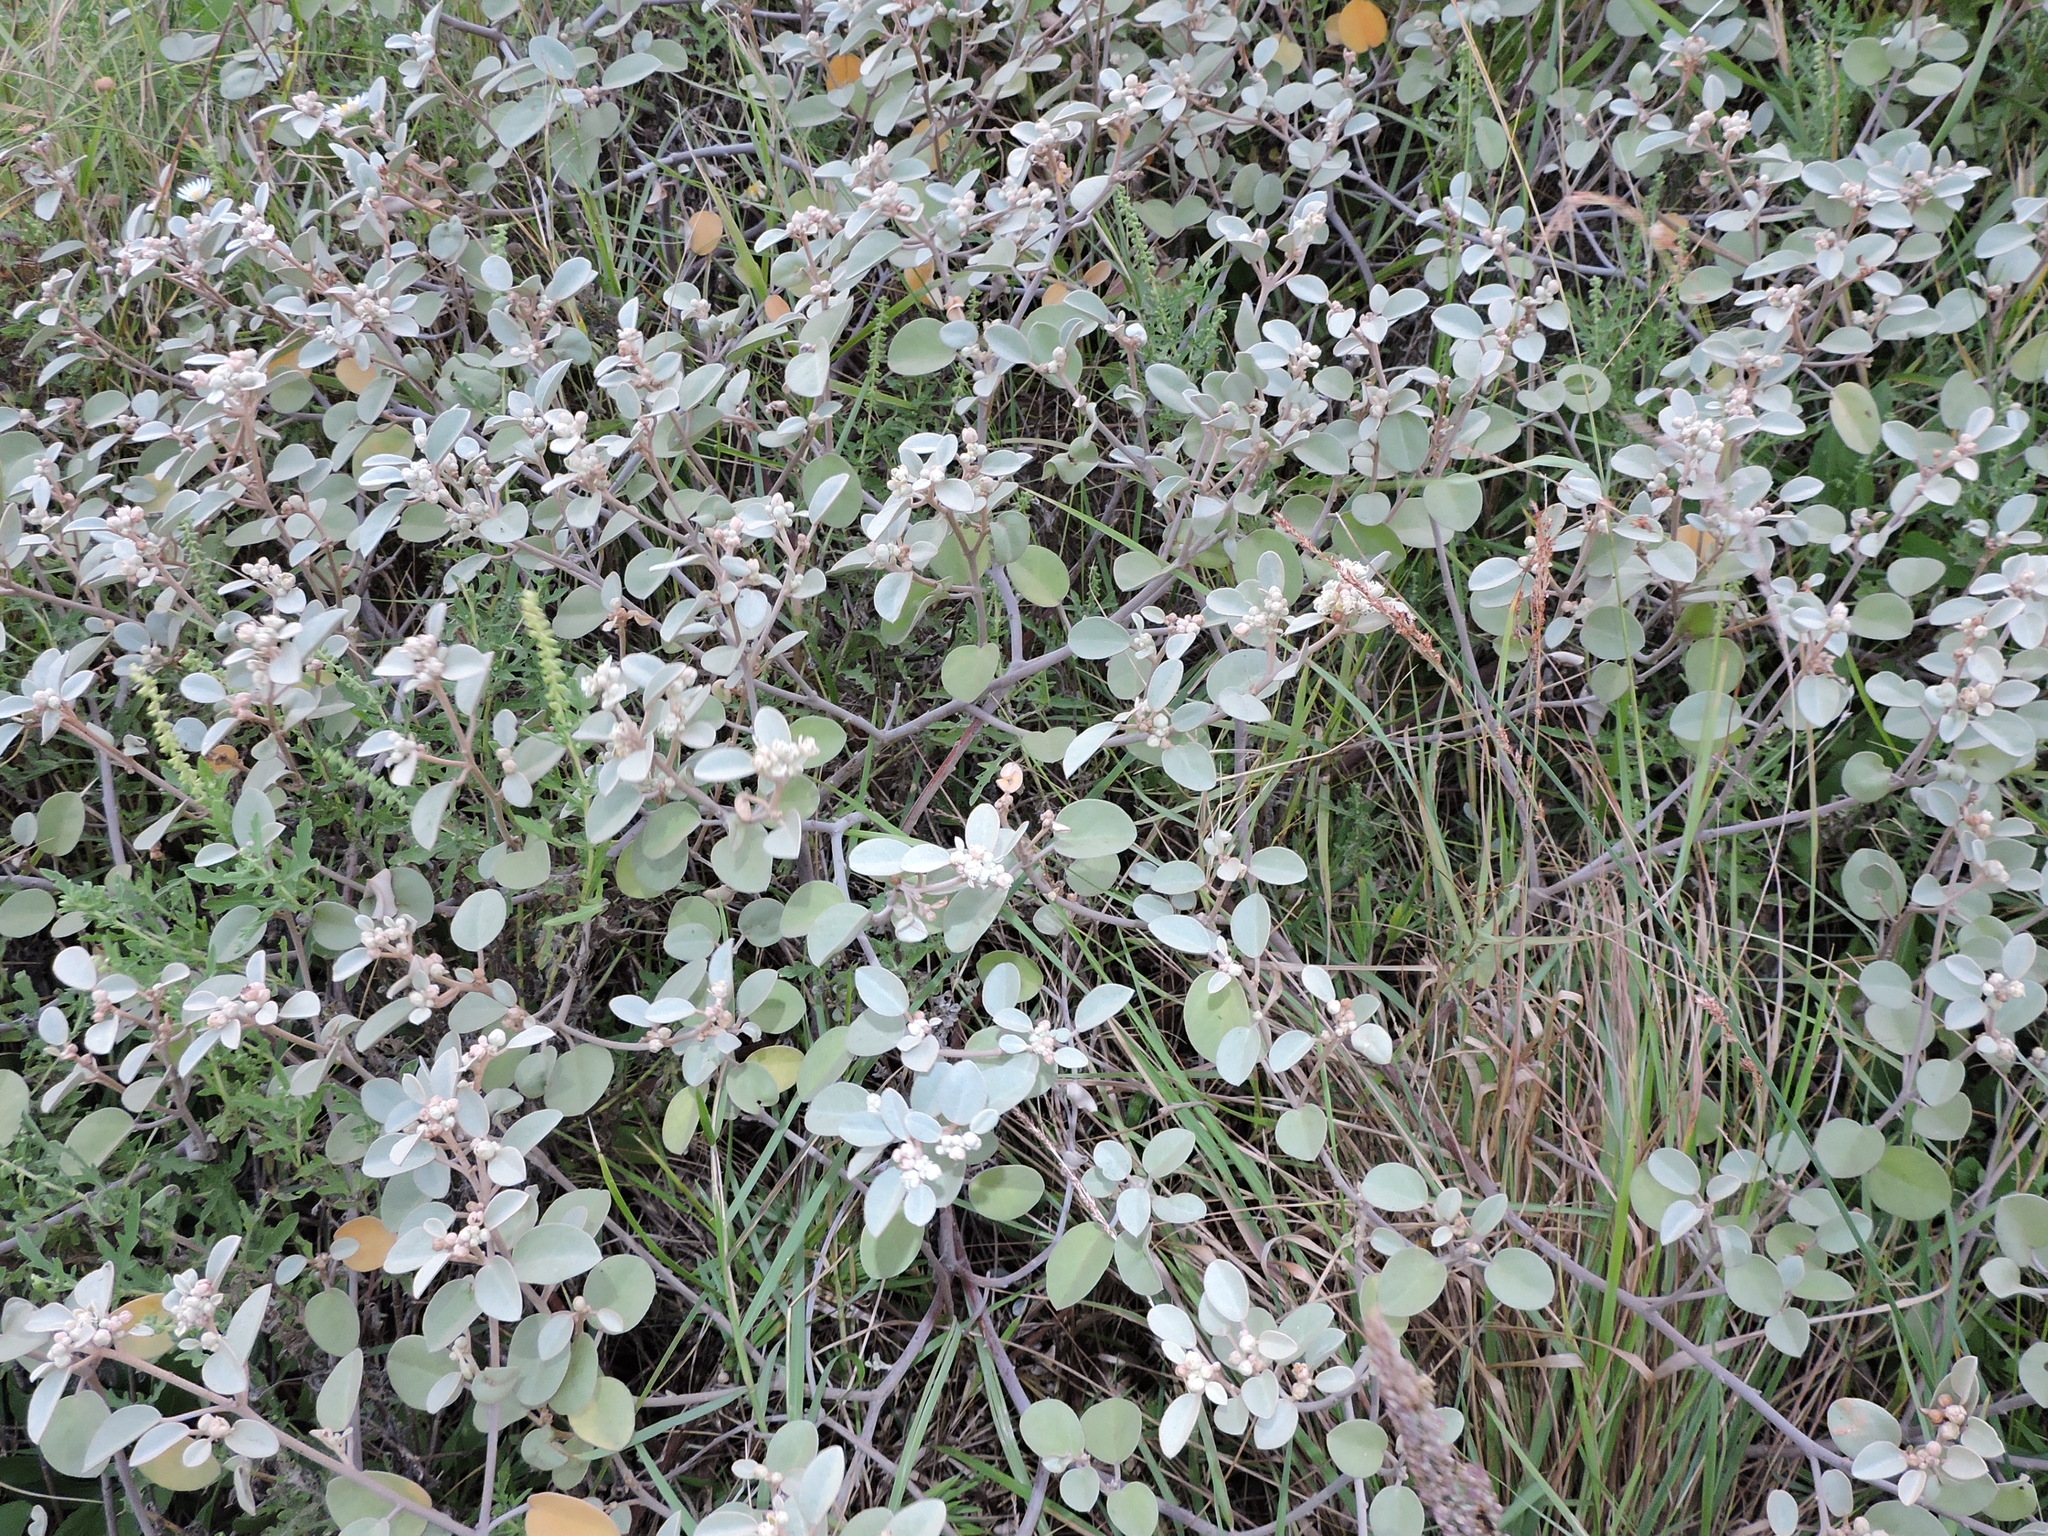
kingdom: Plantae
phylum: Tracheophyta
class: Magnoliopsida
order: Malpighiales
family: Euphorbiaceae
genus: Croton
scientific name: Croton punctatus
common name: Beach-tea
